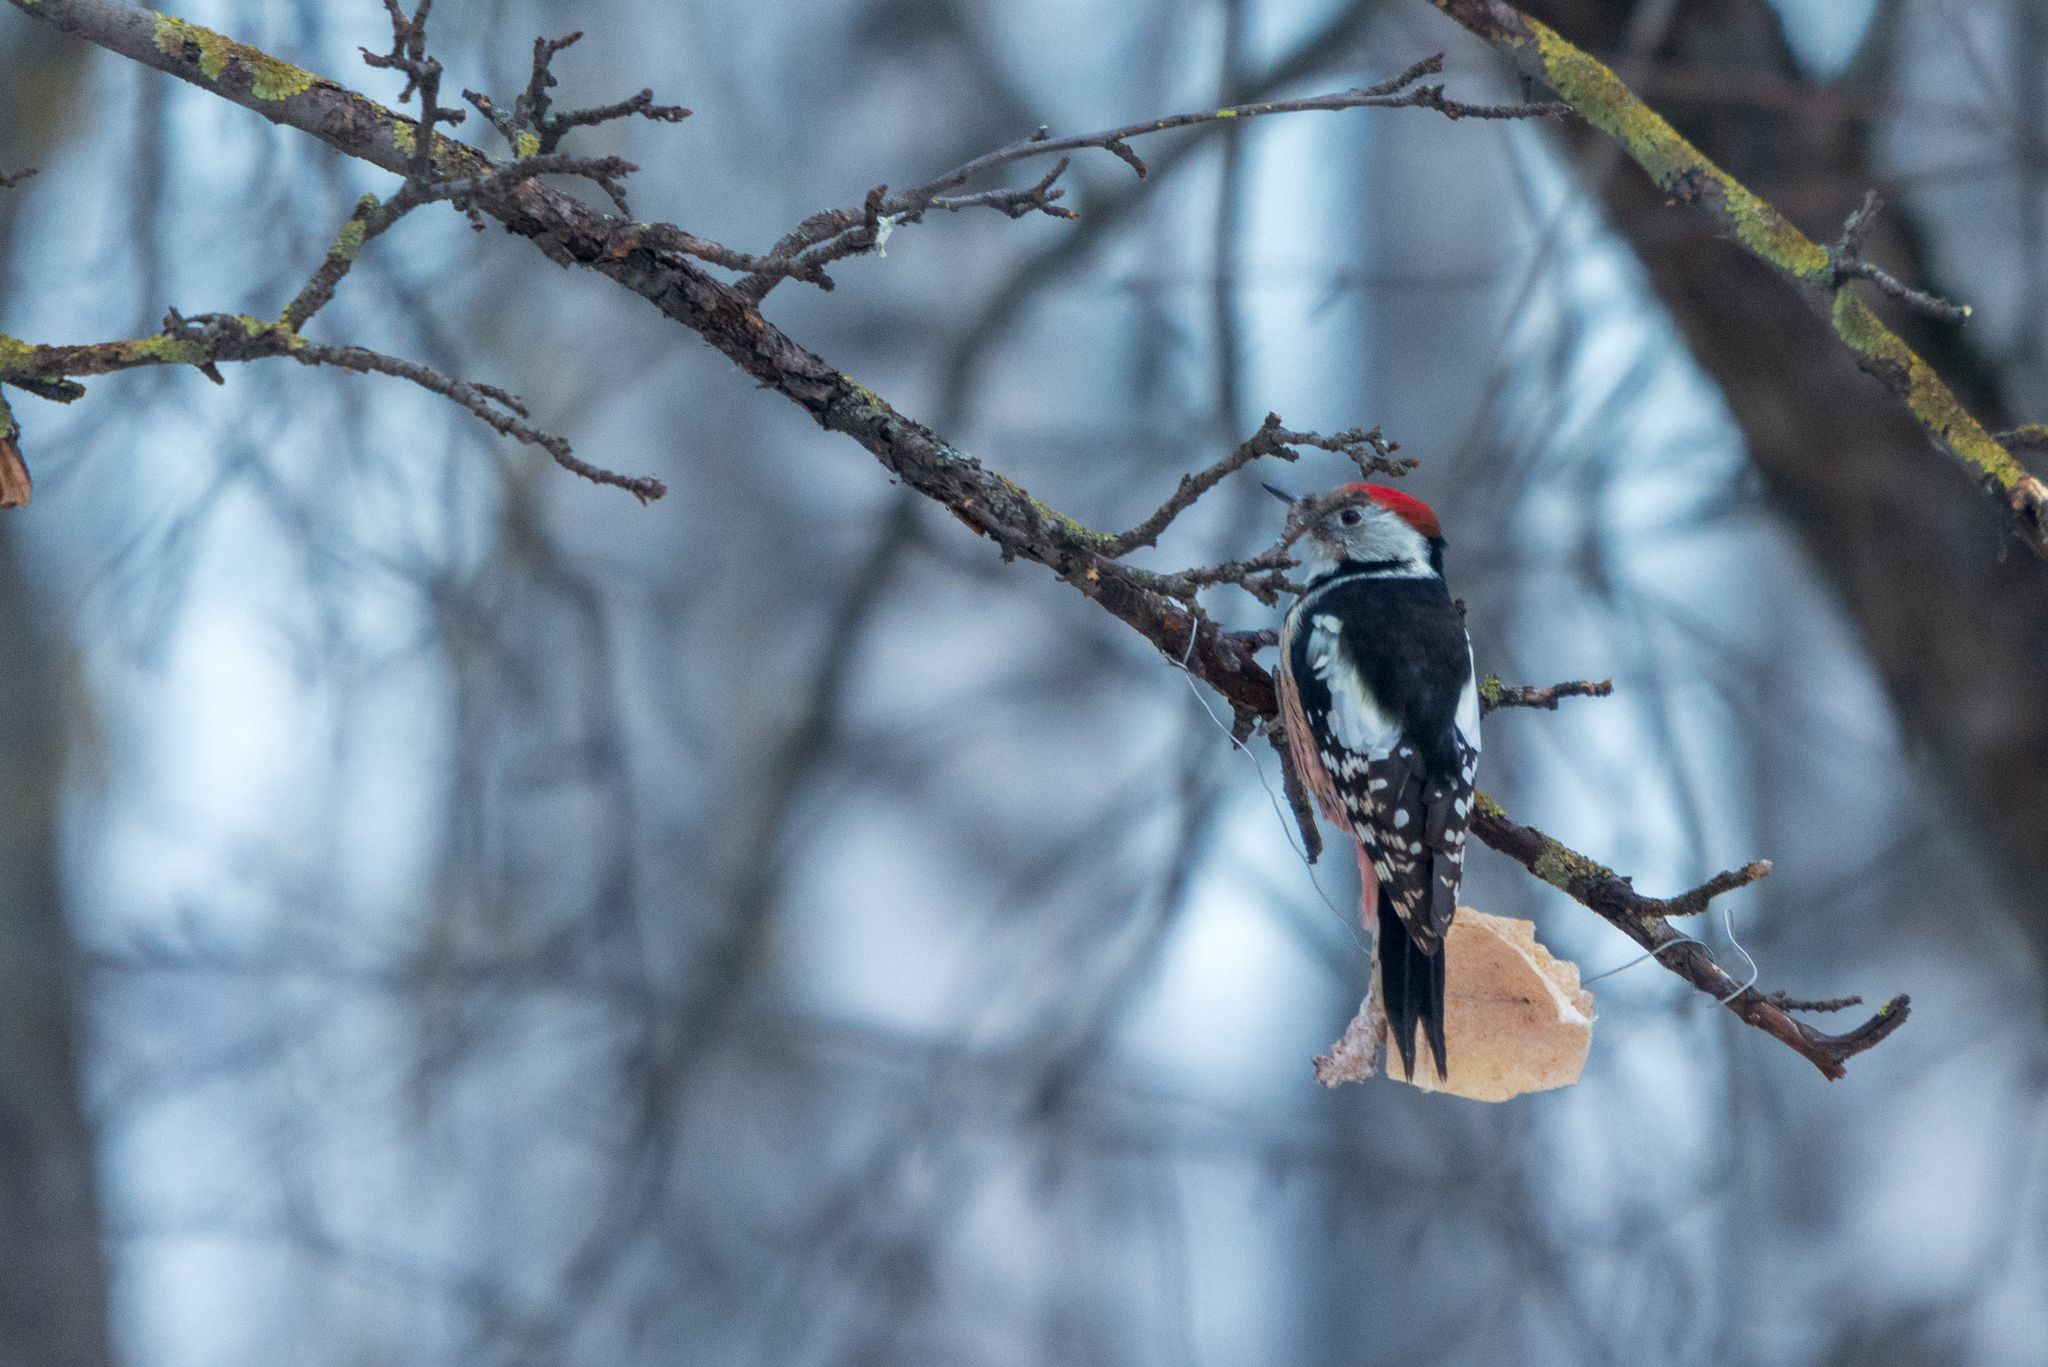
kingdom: Animalia
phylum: Chordata
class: Aves
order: Piciformes
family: Picidae
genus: Dendrocoptes
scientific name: Dendrocoptes medius
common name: Middle spotted woodpecker
